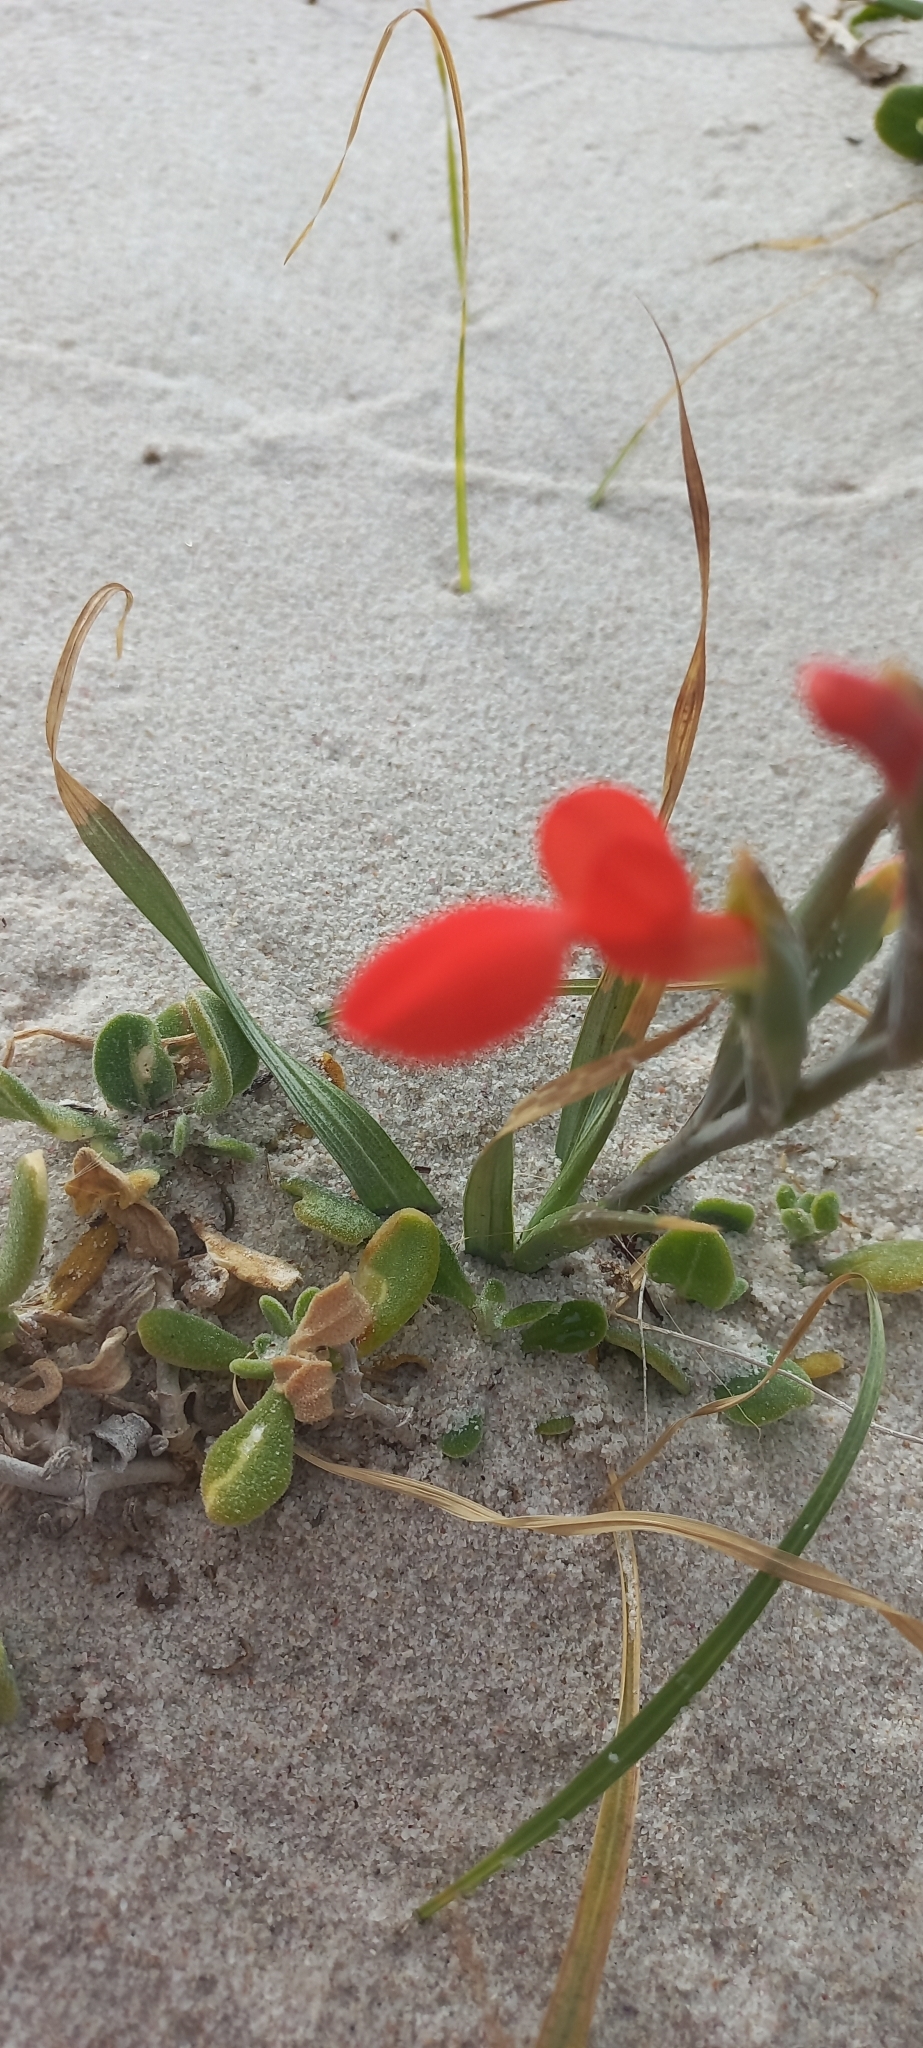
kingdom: Plantae
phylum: Tracheophyta
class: Liliopsida
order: Asparagales
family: Iridaceae
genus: Gladiolus
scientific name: Gladiolus cunonius
